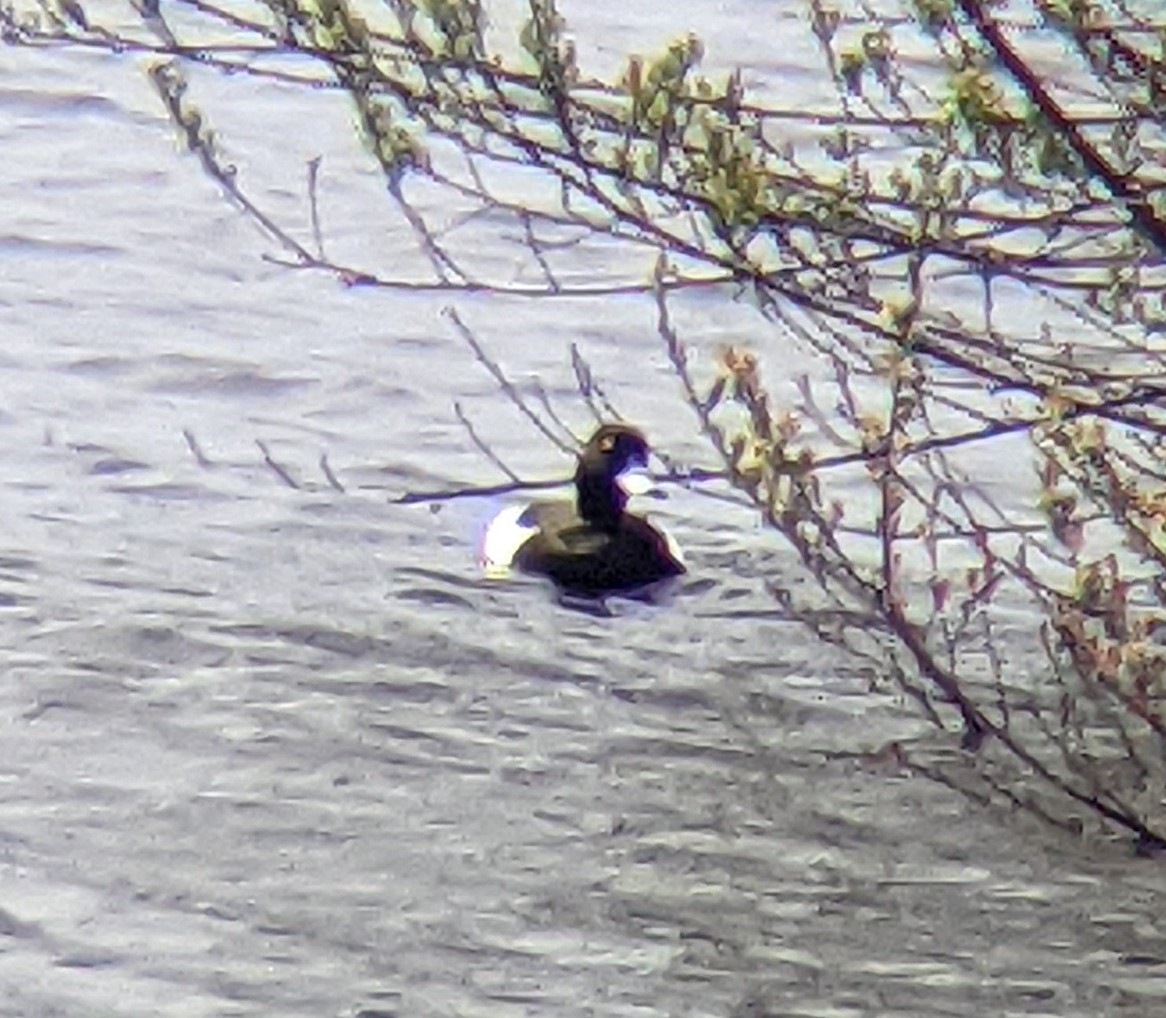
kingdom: Animalia
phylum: Chordata
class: Aves
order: Anseriformes
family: Anatidae
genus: Aythya
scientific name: Aythya fuligula
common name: Tufted duck
